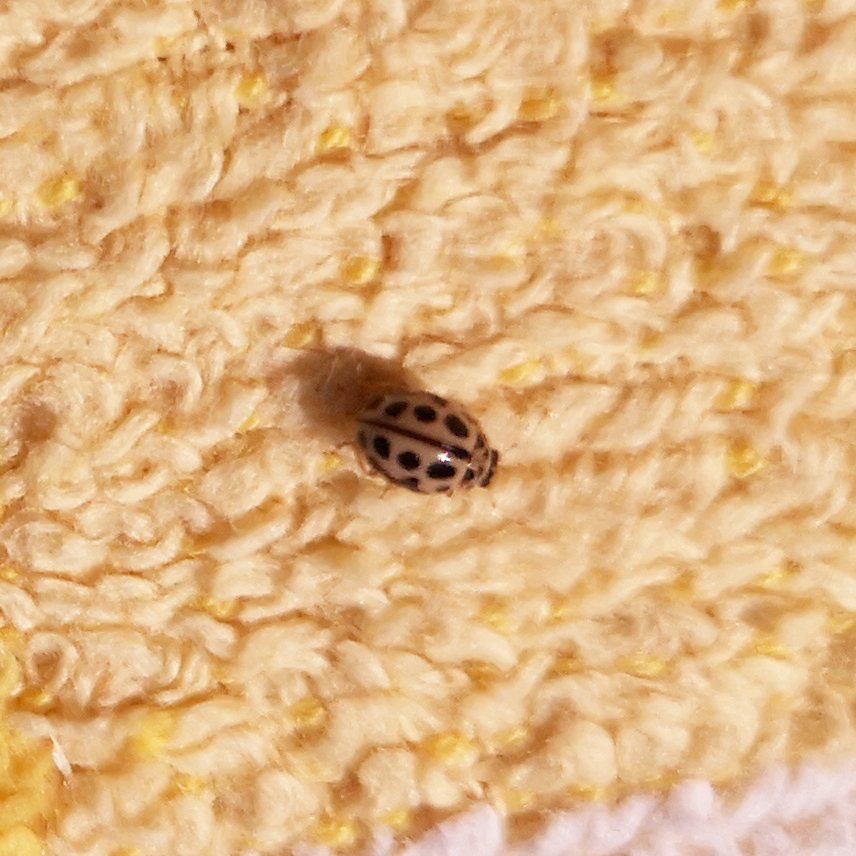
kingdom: Animalia
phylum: Arthropoda
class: Insecta
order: Coleoptera
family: Coccinellidae
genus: Tytthaspis
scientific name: Tytthaspis sedecimpunctata
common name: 16-spot ladybird
